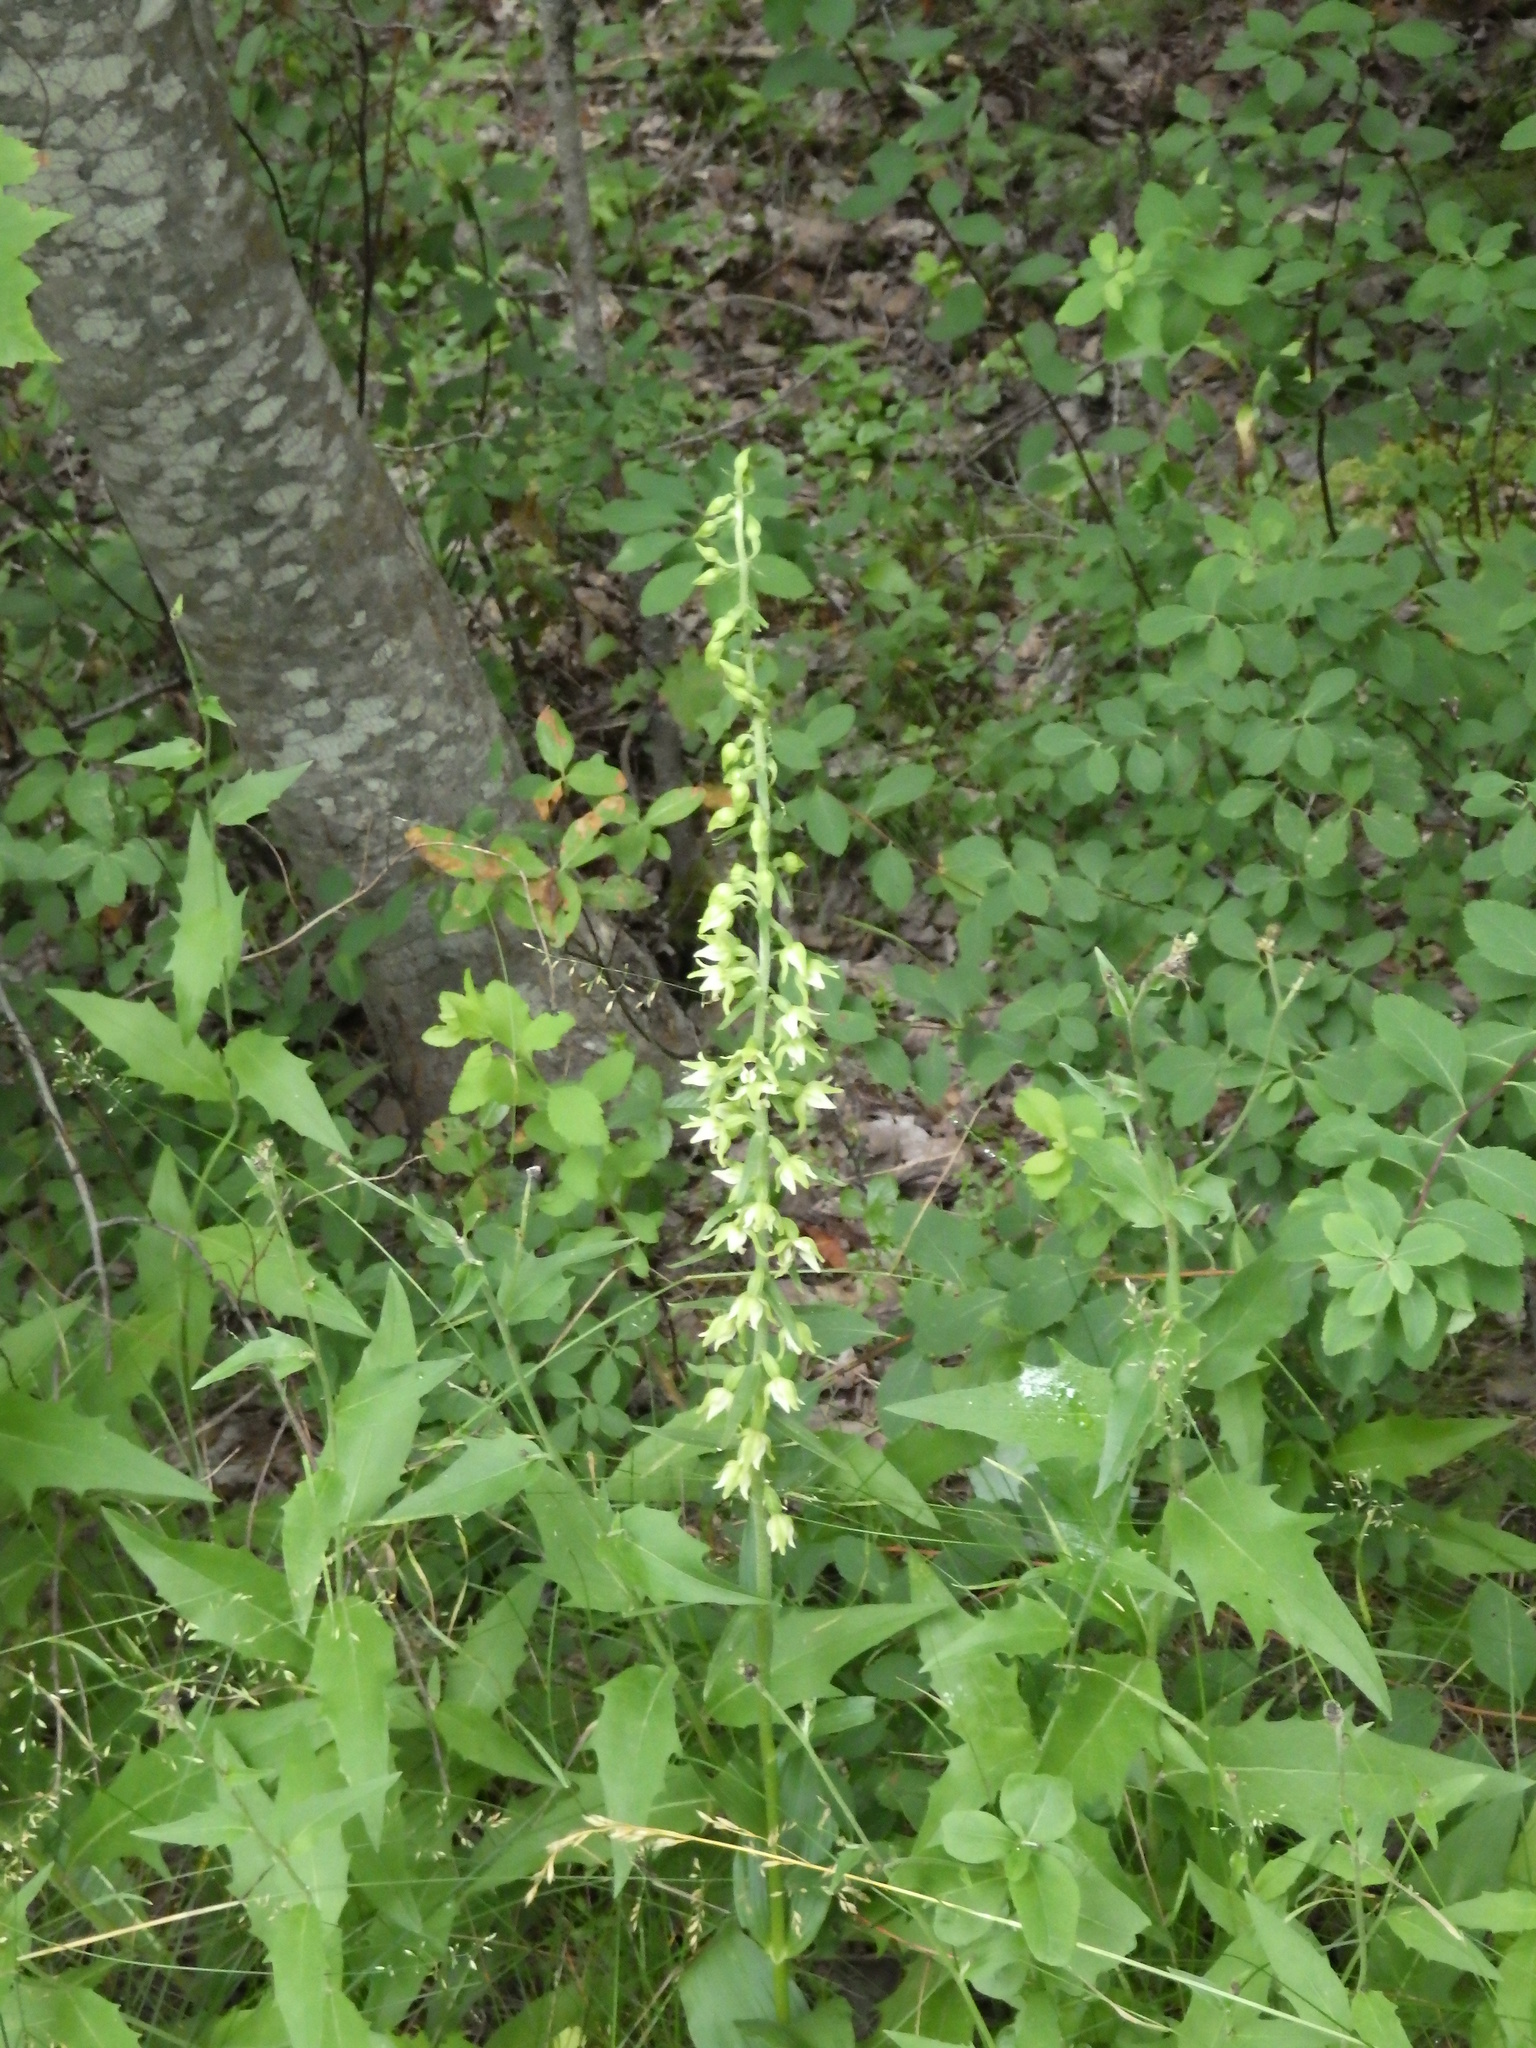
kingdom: Plantae
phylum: Tracheophyta
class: Liliopsida
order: Asparagales
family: Orchidaceae
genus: Epipactis
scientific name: Epipactis helleborine
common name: Broad-leaved helleborine
